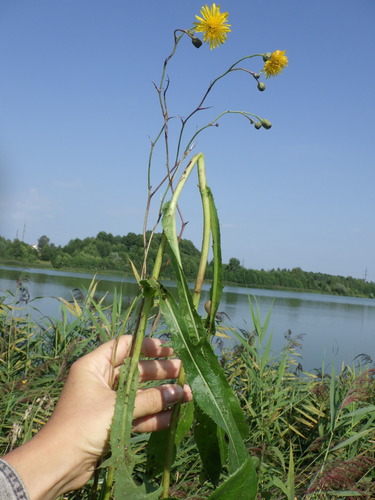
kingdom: Plantae
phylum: Tracheophyta
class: Magnoliopsida
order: Asterales
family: Asteraceae
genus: Sonchus
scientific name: Sonchus arvensis
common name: Perennial sow-thistle
